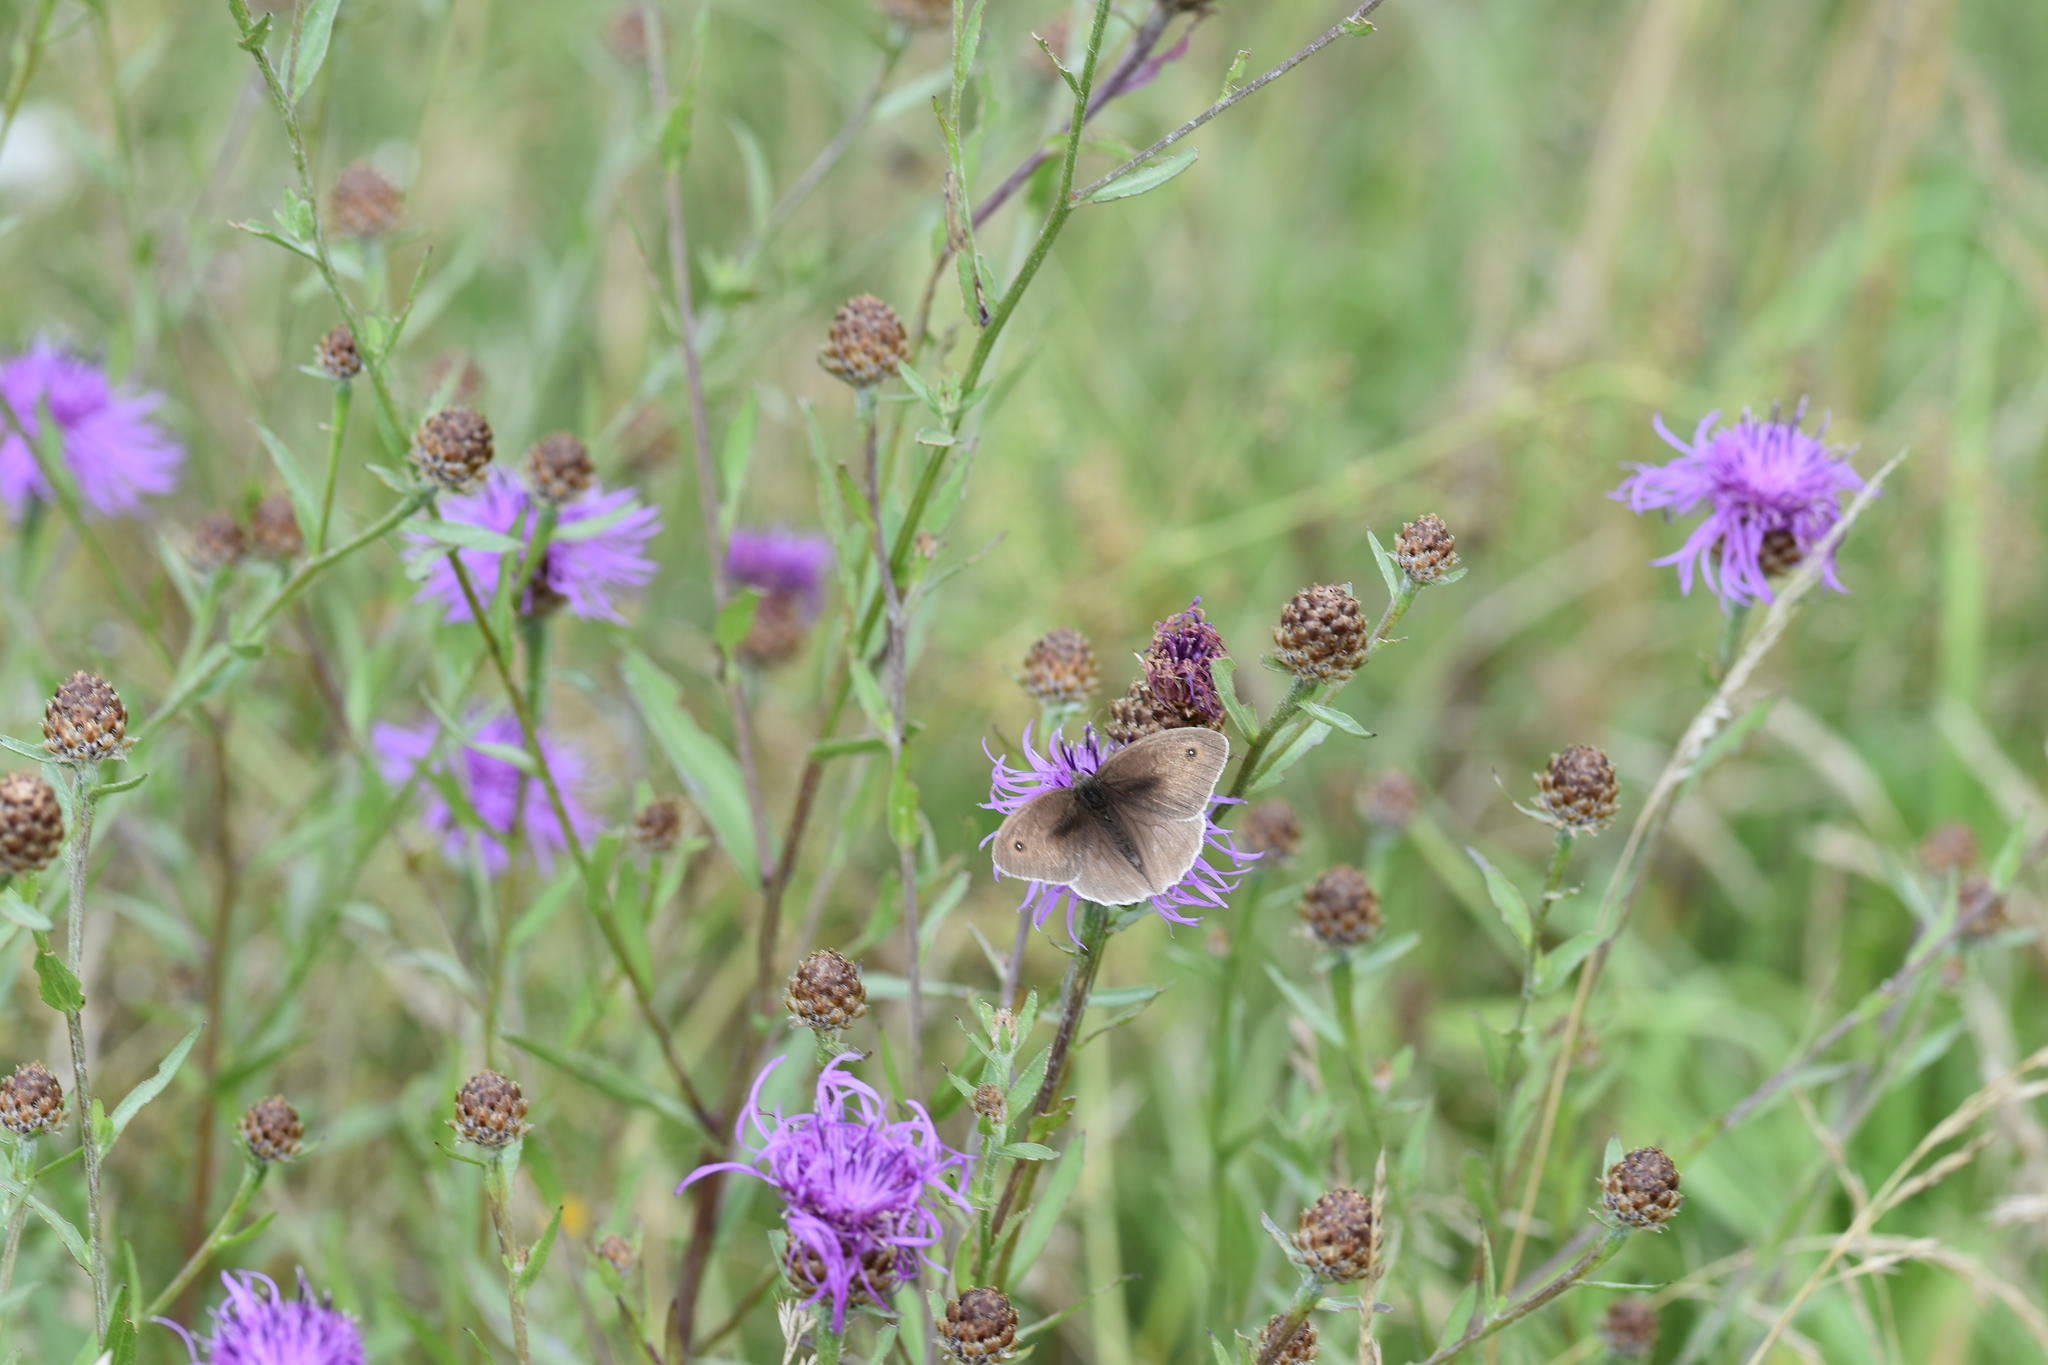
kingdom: Animalia
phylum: Arthropoda
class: Insecta
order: Lepidoptera
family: Nymphalidae
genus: Maniola
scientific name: Maniola jurtina
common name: Meadow brown
